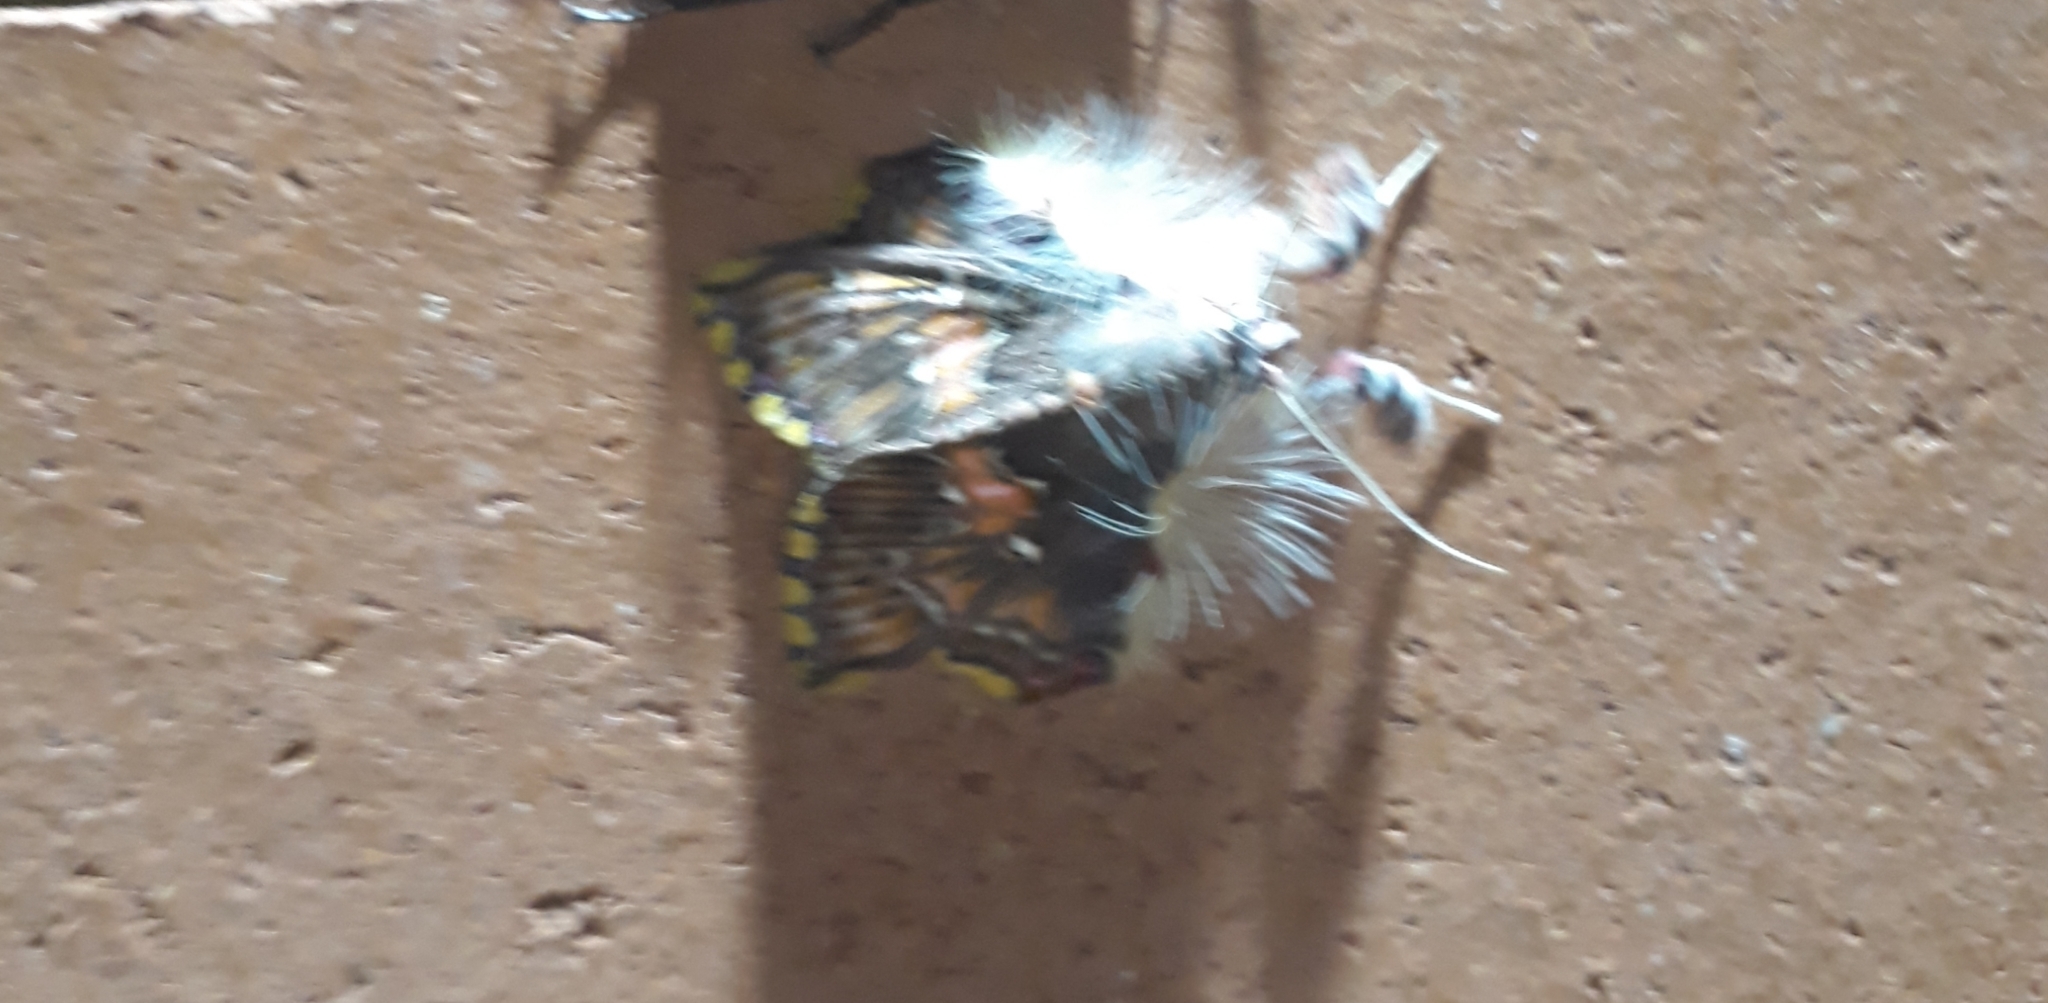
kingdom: Animalia
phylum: Arthropoda
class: Insecta
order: Lepidoptera
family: Erebidae
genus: Sosxetra
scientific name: Sosxetra grata
